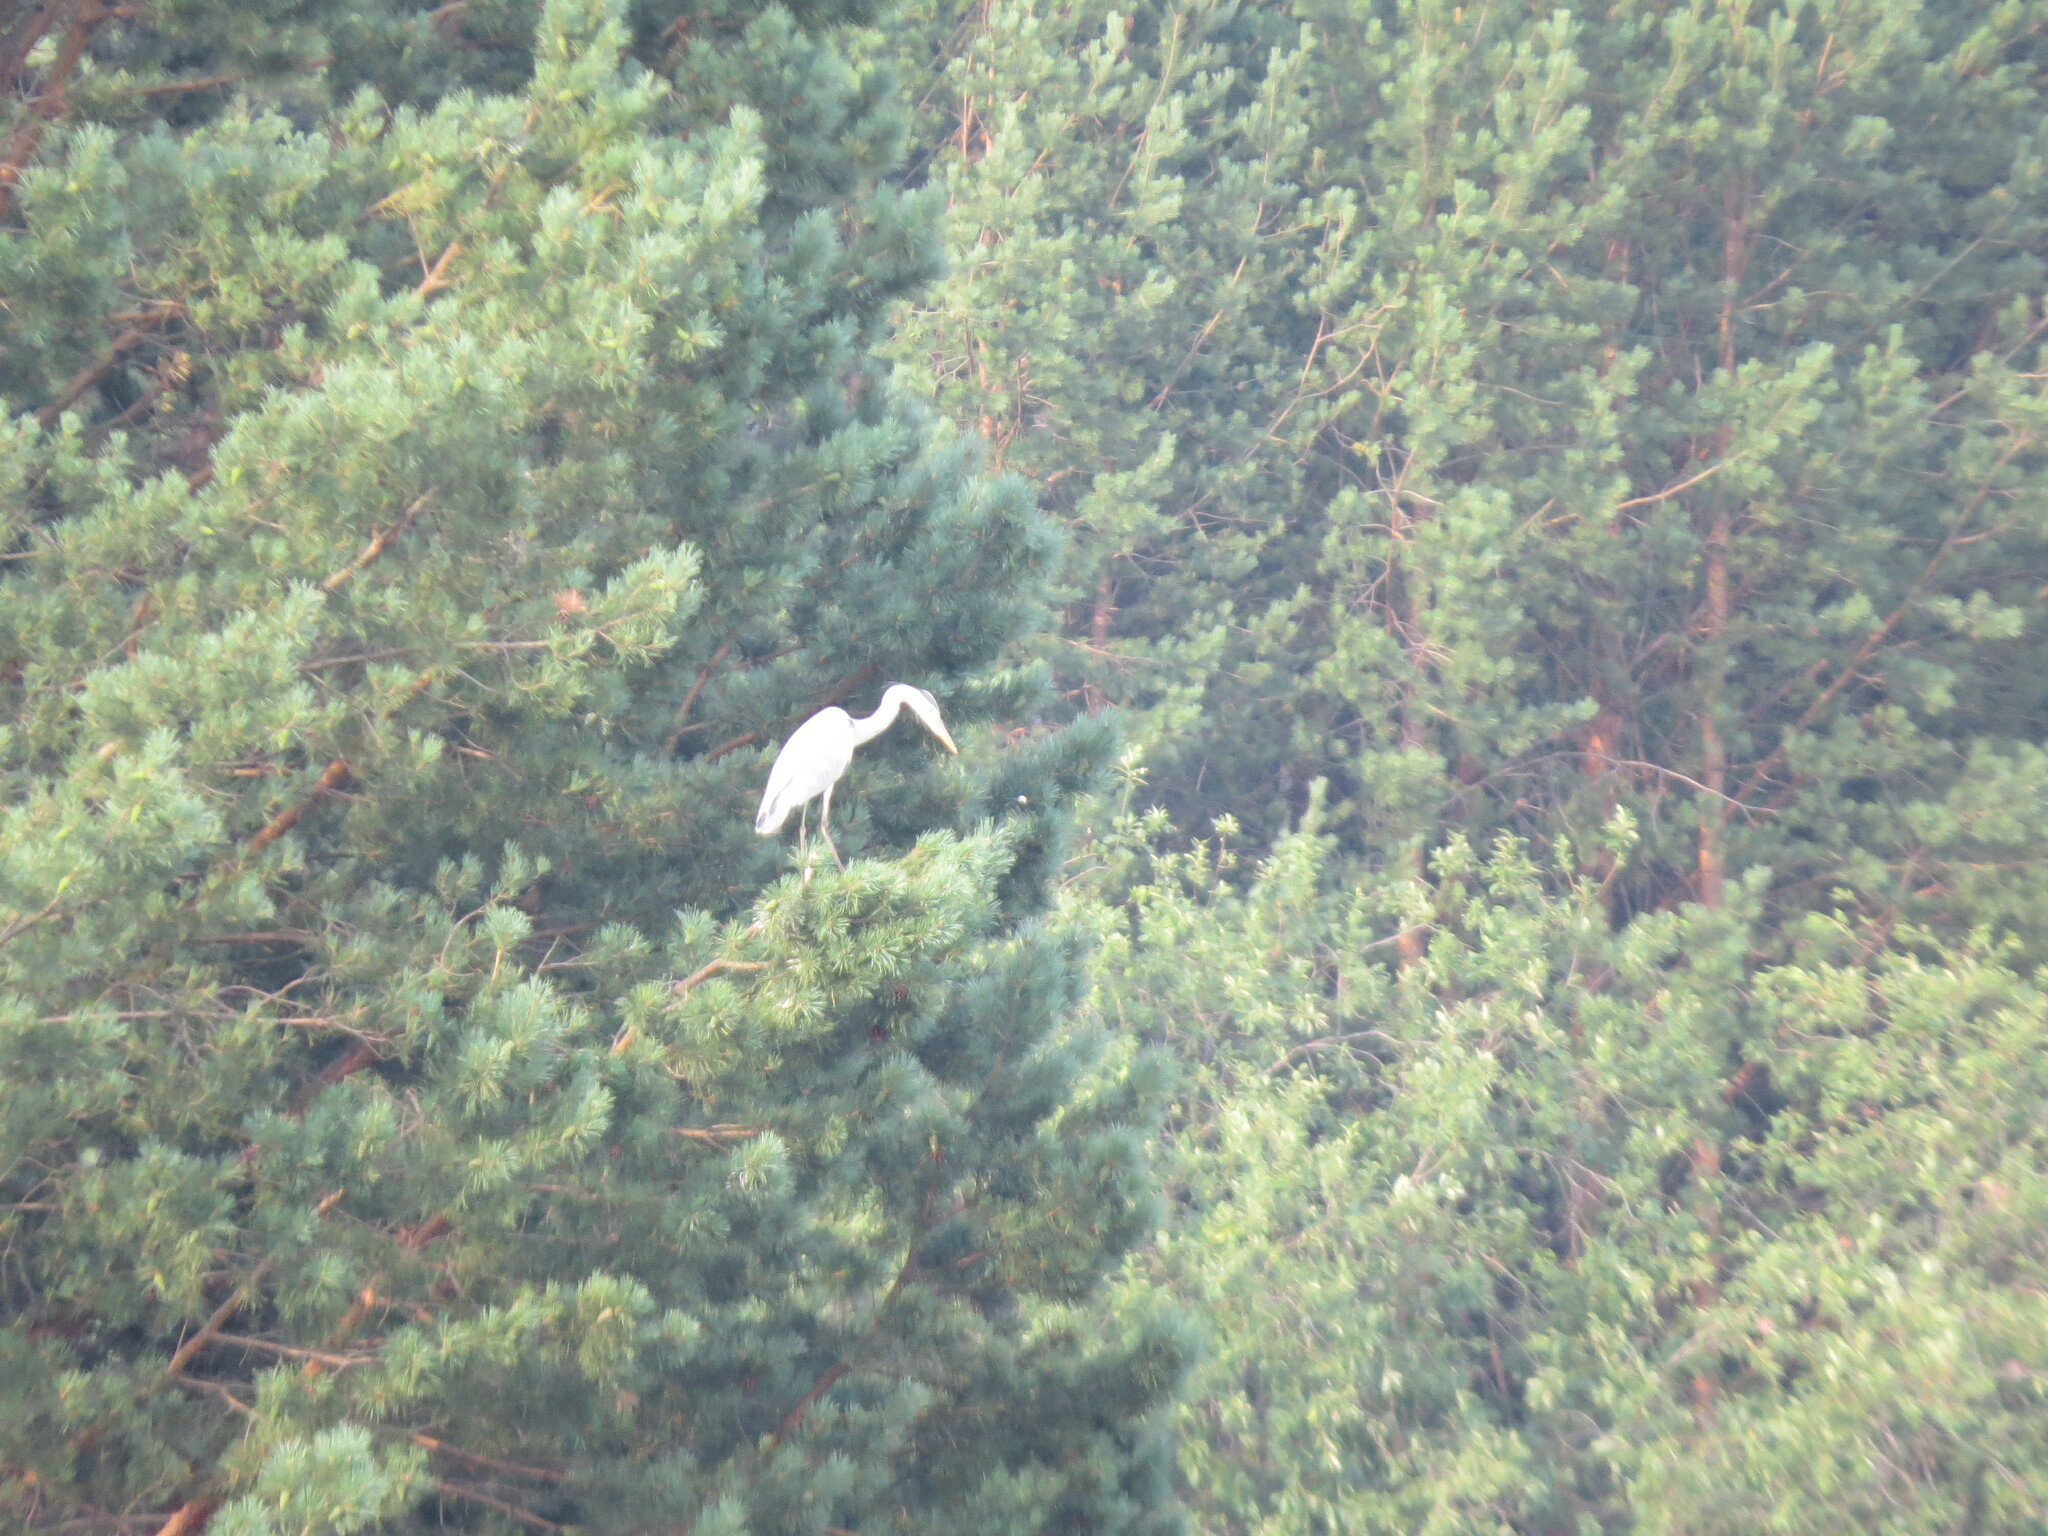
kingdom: Animalia
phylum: Chordata
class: Aves
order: Pelecaniformes
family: Ardeidae
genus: Ardea
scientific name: Ardea cinerea
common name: Grey heron
